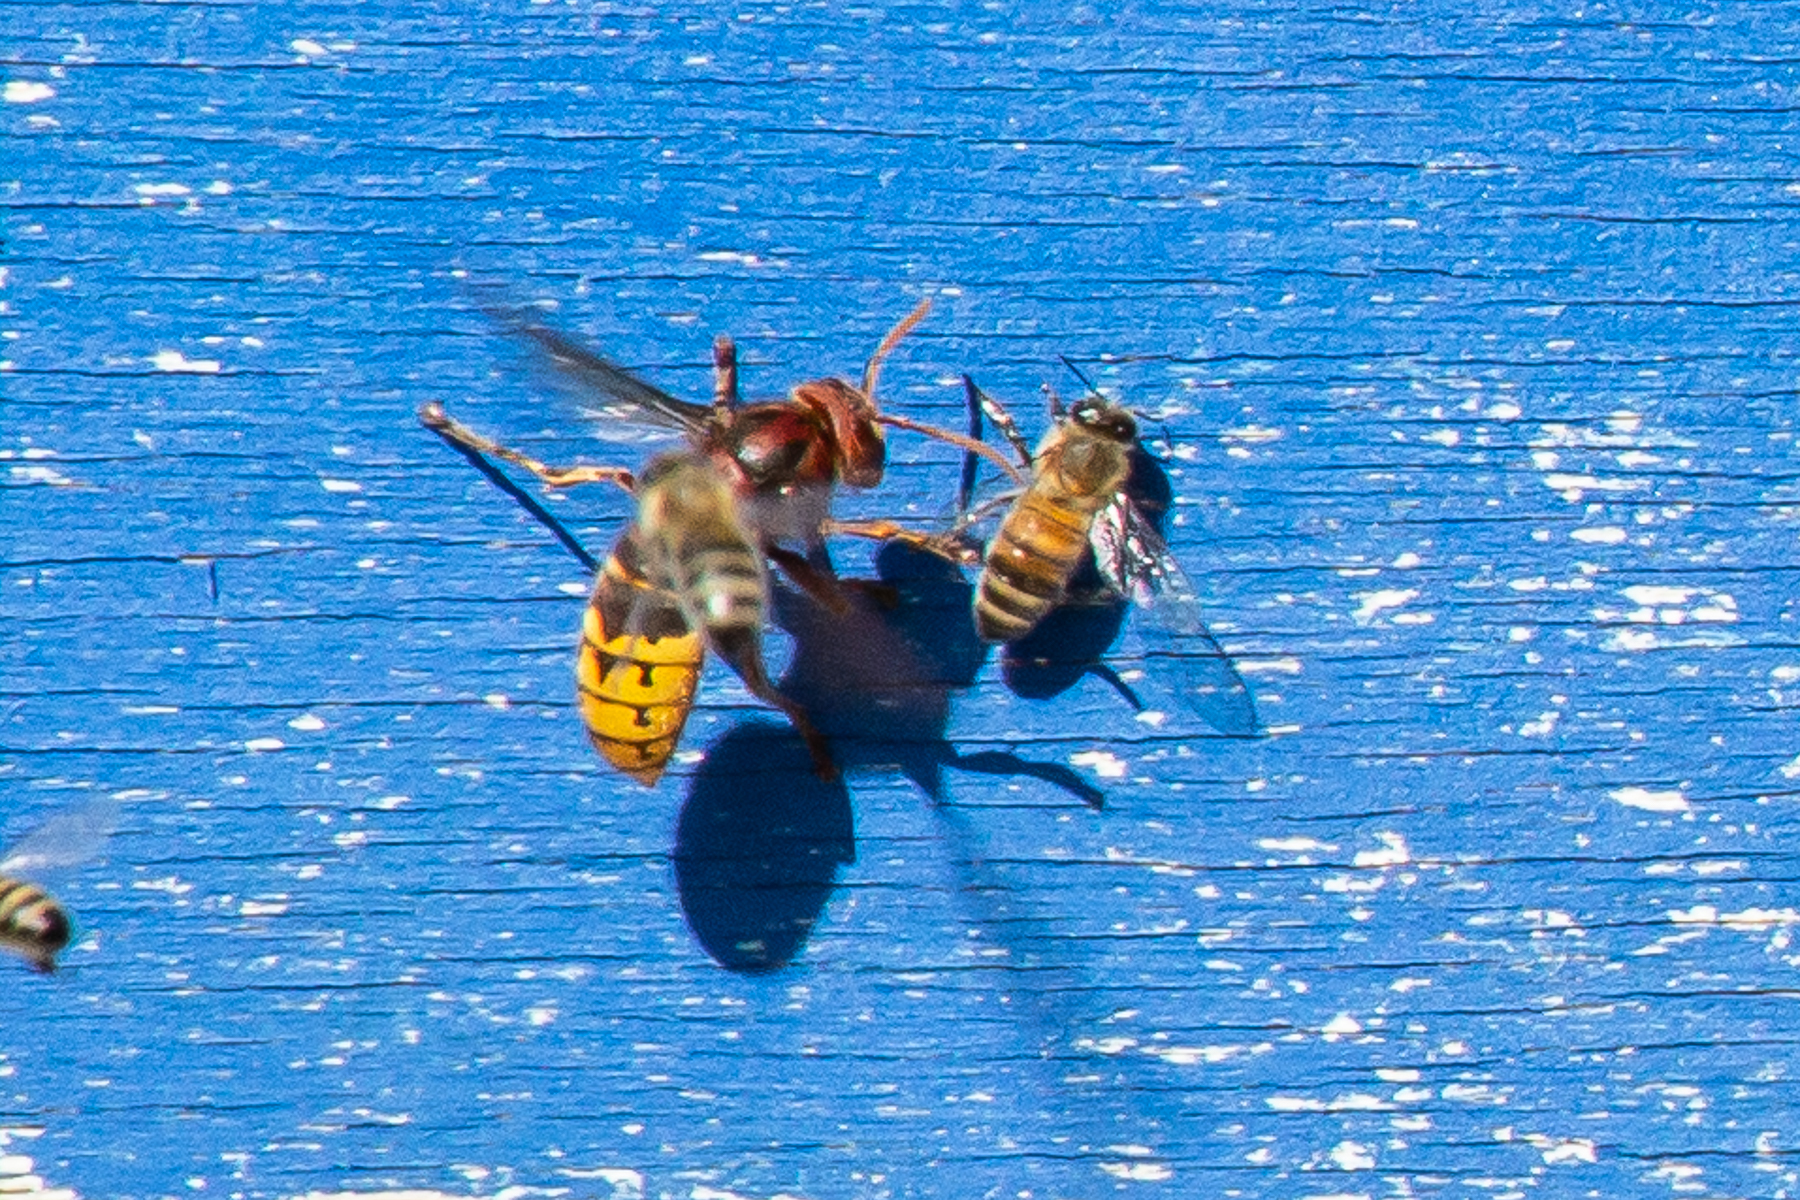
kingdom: Animalia
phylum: Arthropoda
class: Insecta
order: Hymenoptera
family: Vespidae
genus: Vespa
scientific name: Vespa crabro
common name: Hornet
